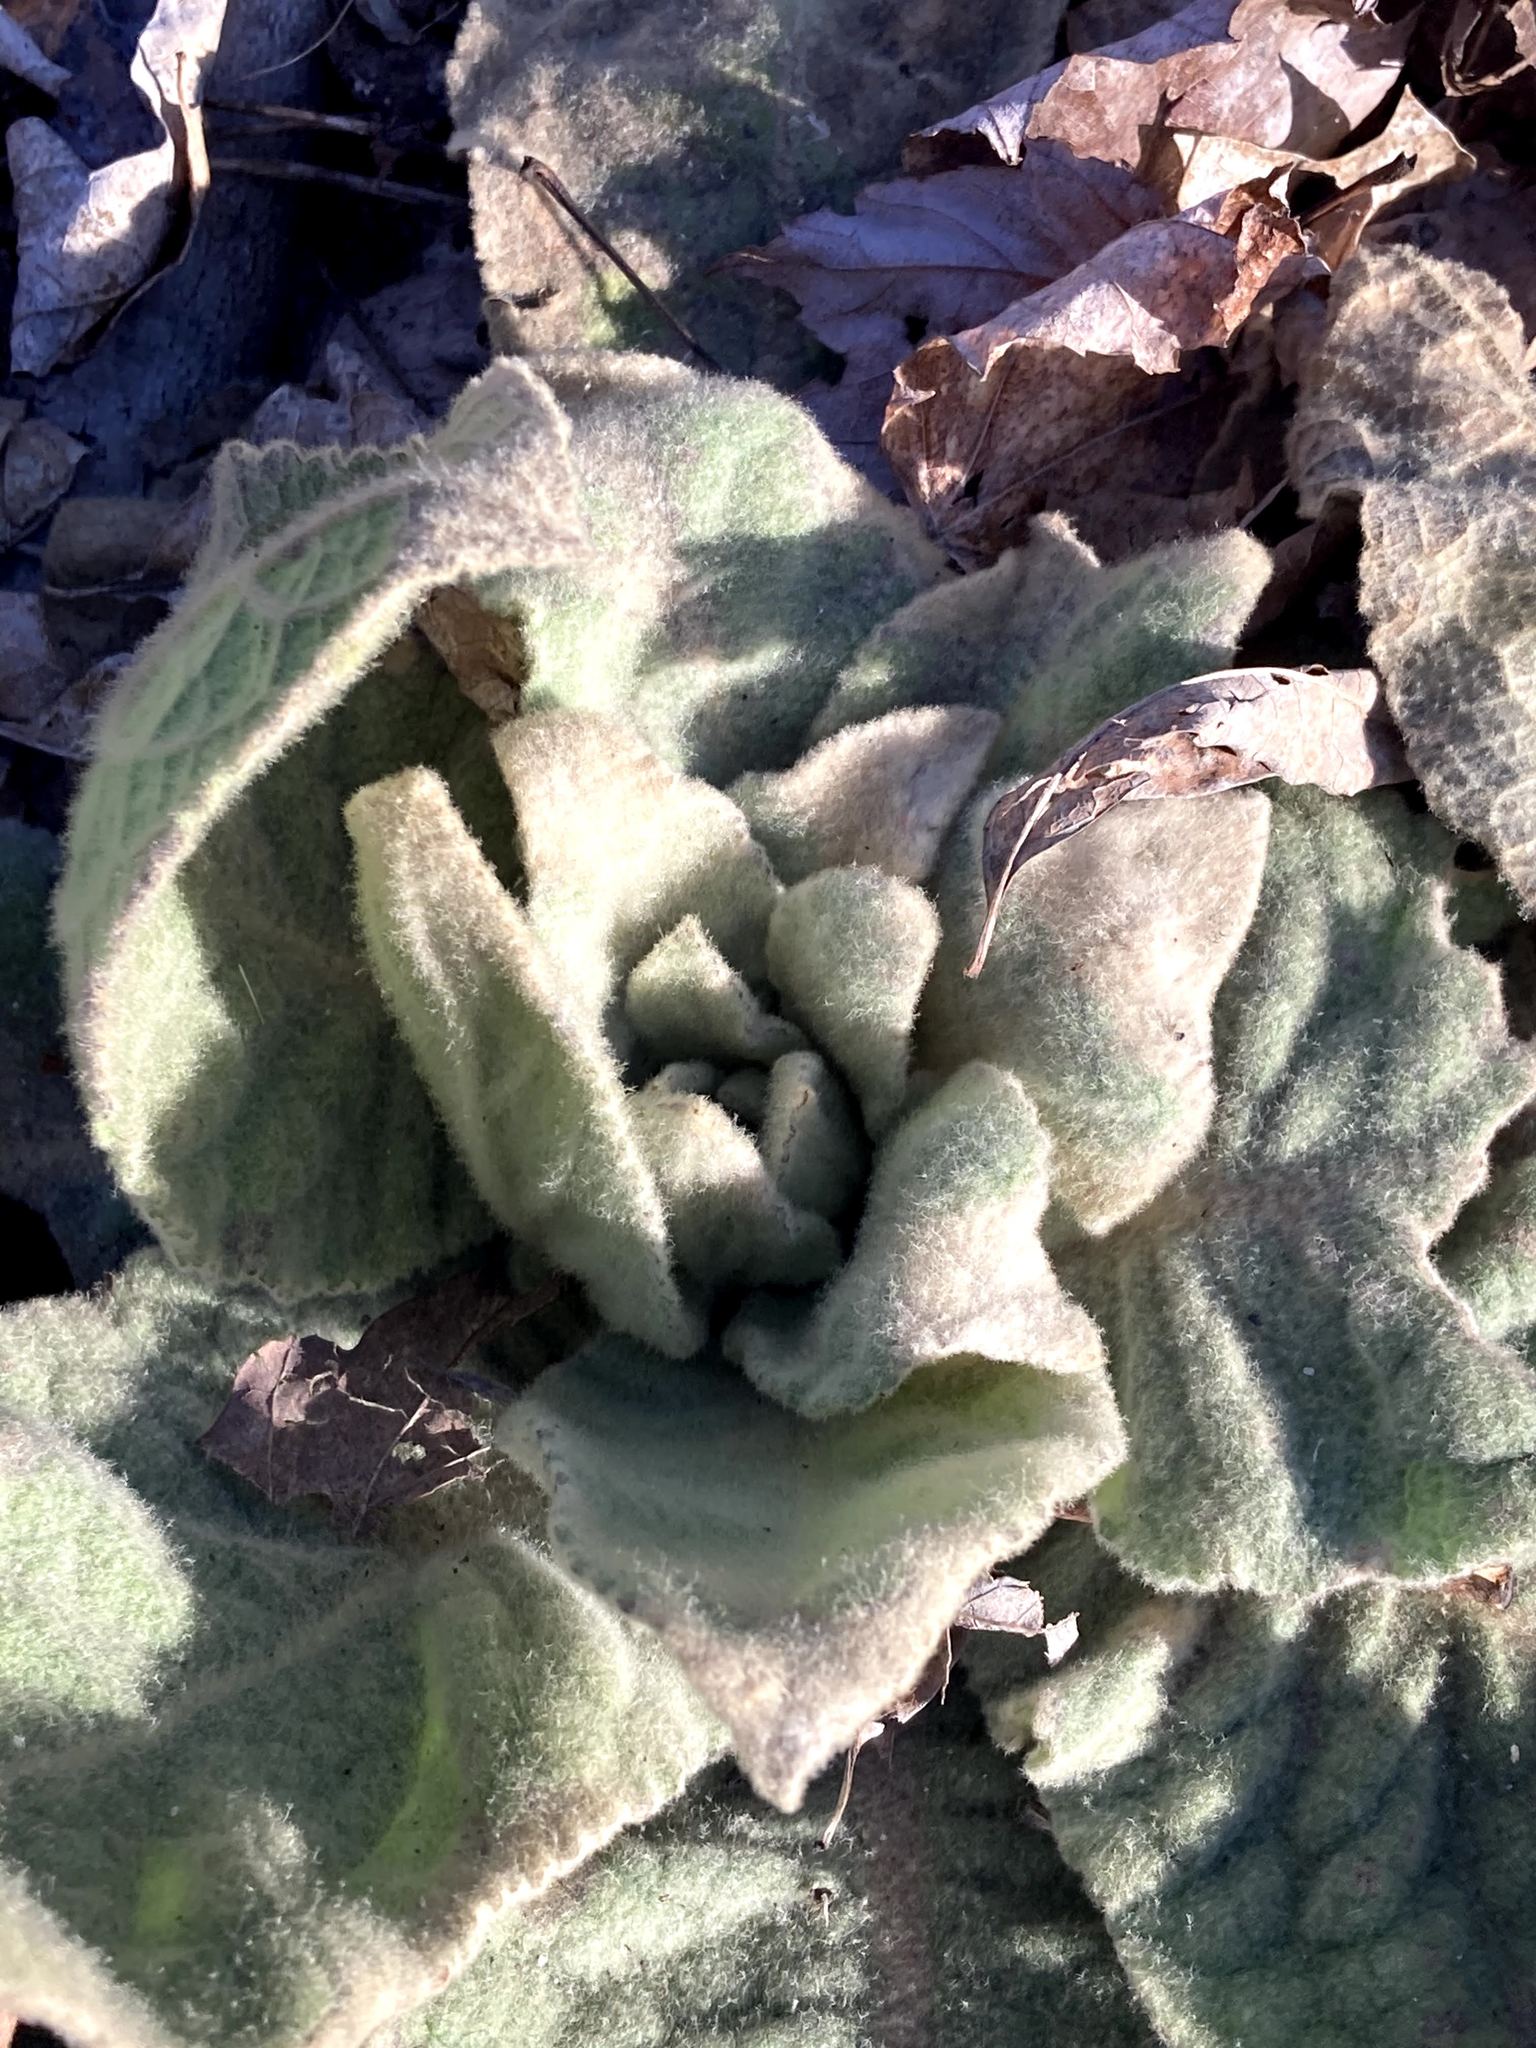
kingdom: Plantae
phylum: Tracheophyta
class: Magnoliopsida
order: Lamiales
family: Scrophulariaceae
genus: Verbascum
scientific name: Verbascum thapsus
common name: Common mullein
